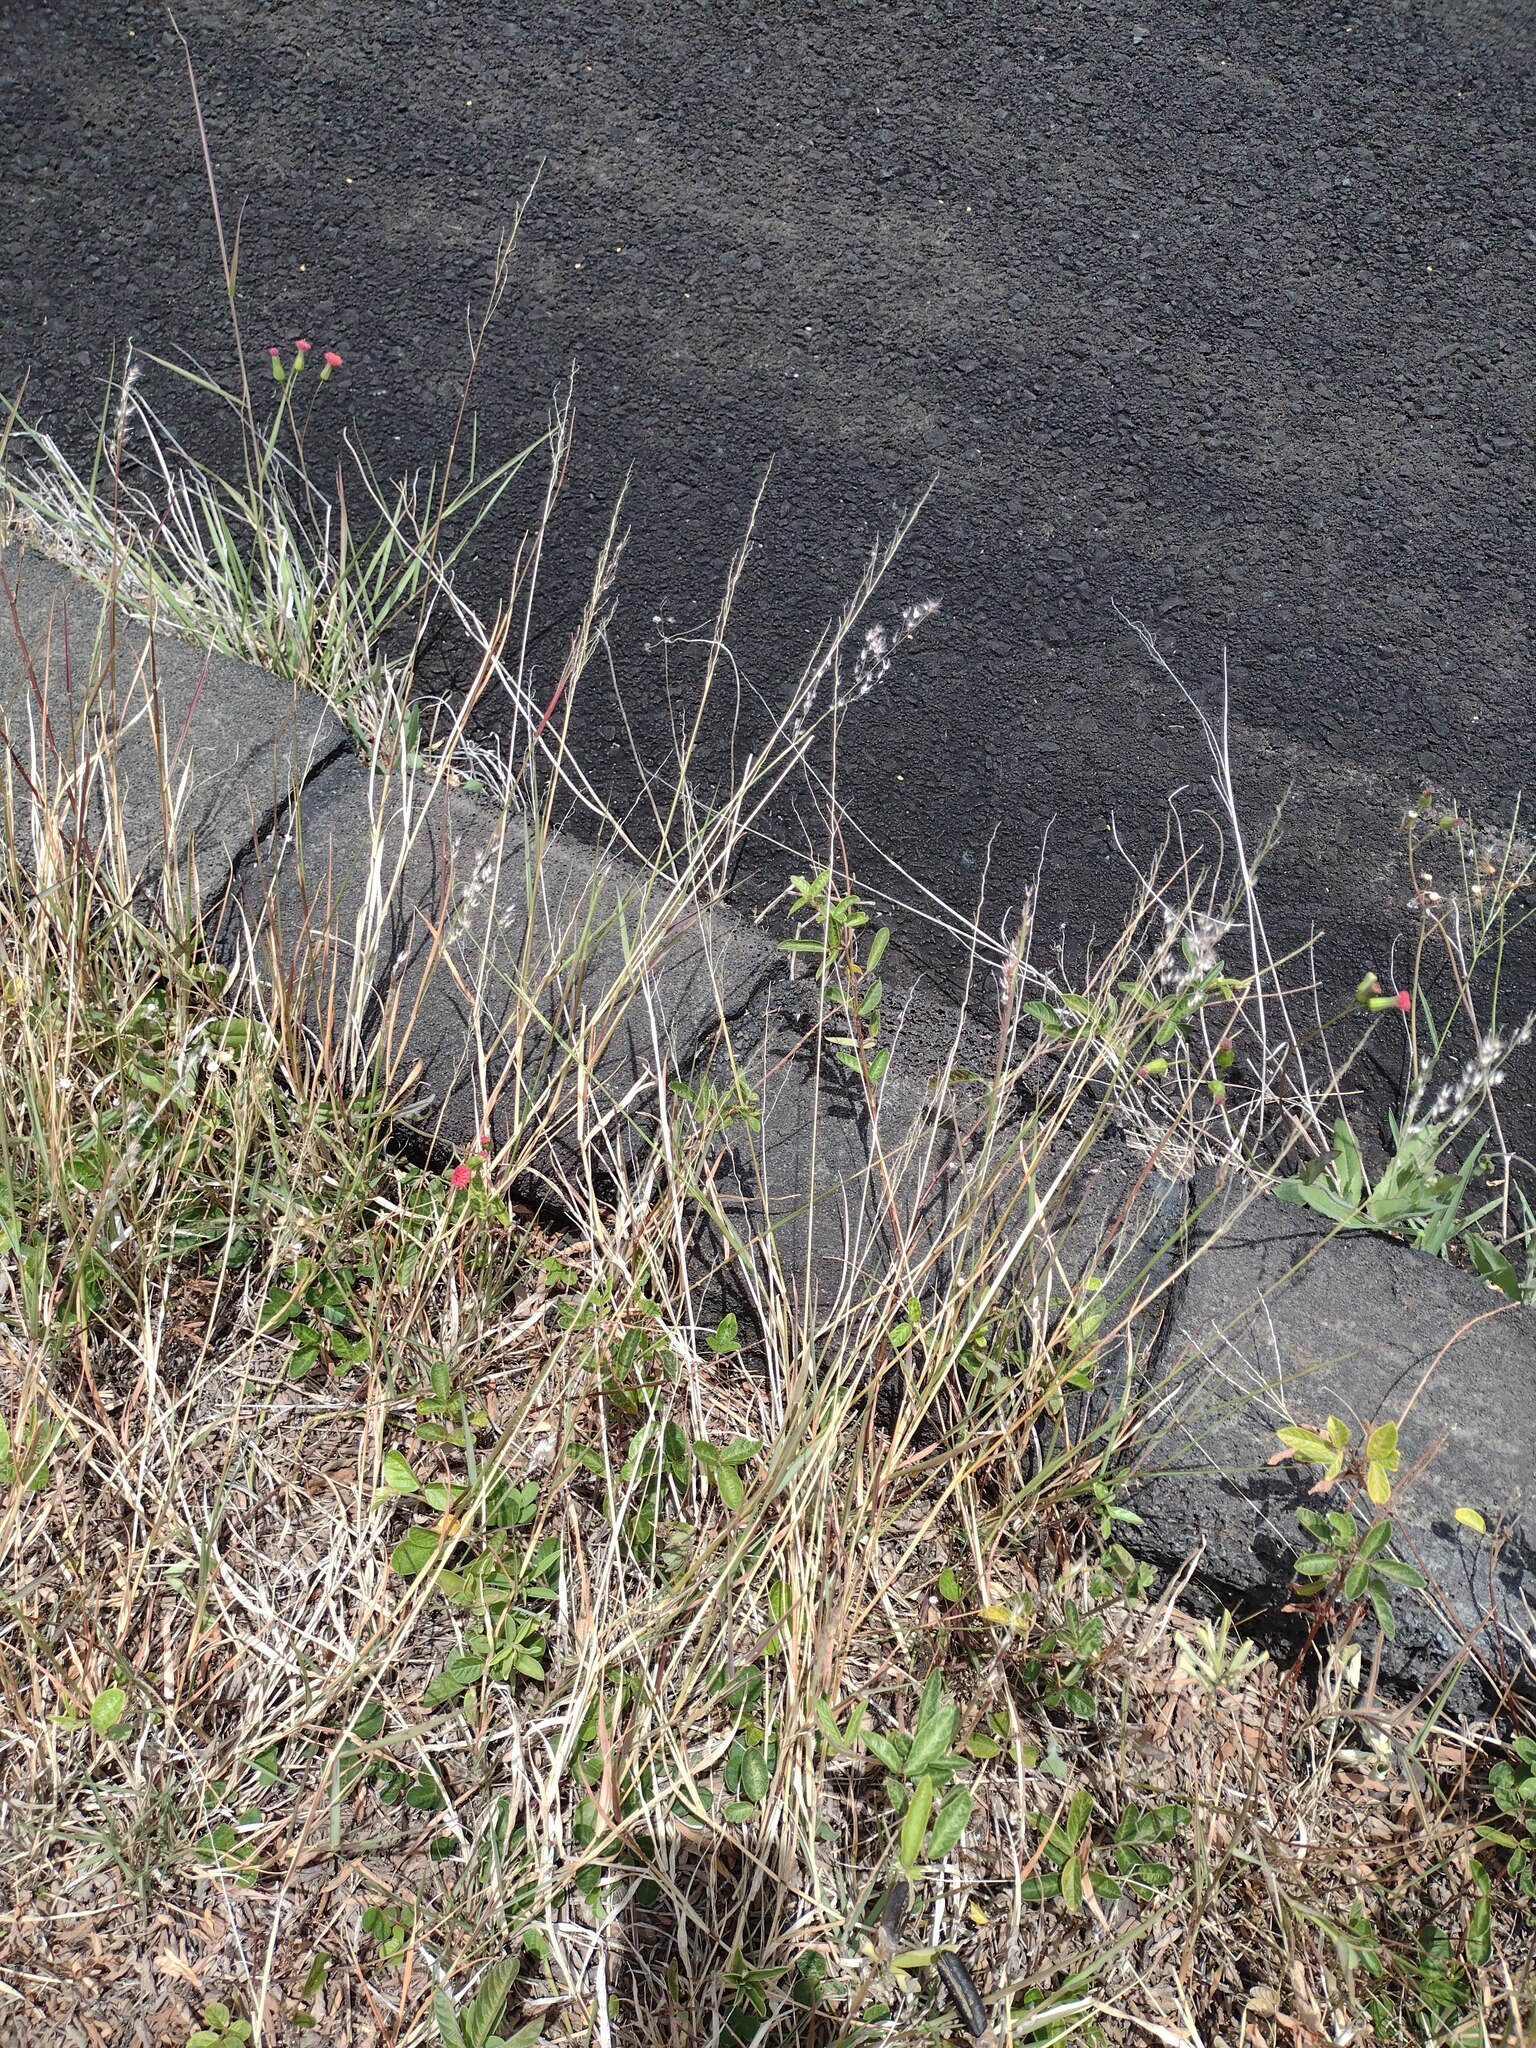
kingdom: Plantae
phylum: Tracheophyta
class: Liliopsida
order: Poales
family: Poaceae
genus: Melinis
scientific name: Melinis repens
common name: Rose natal grass
